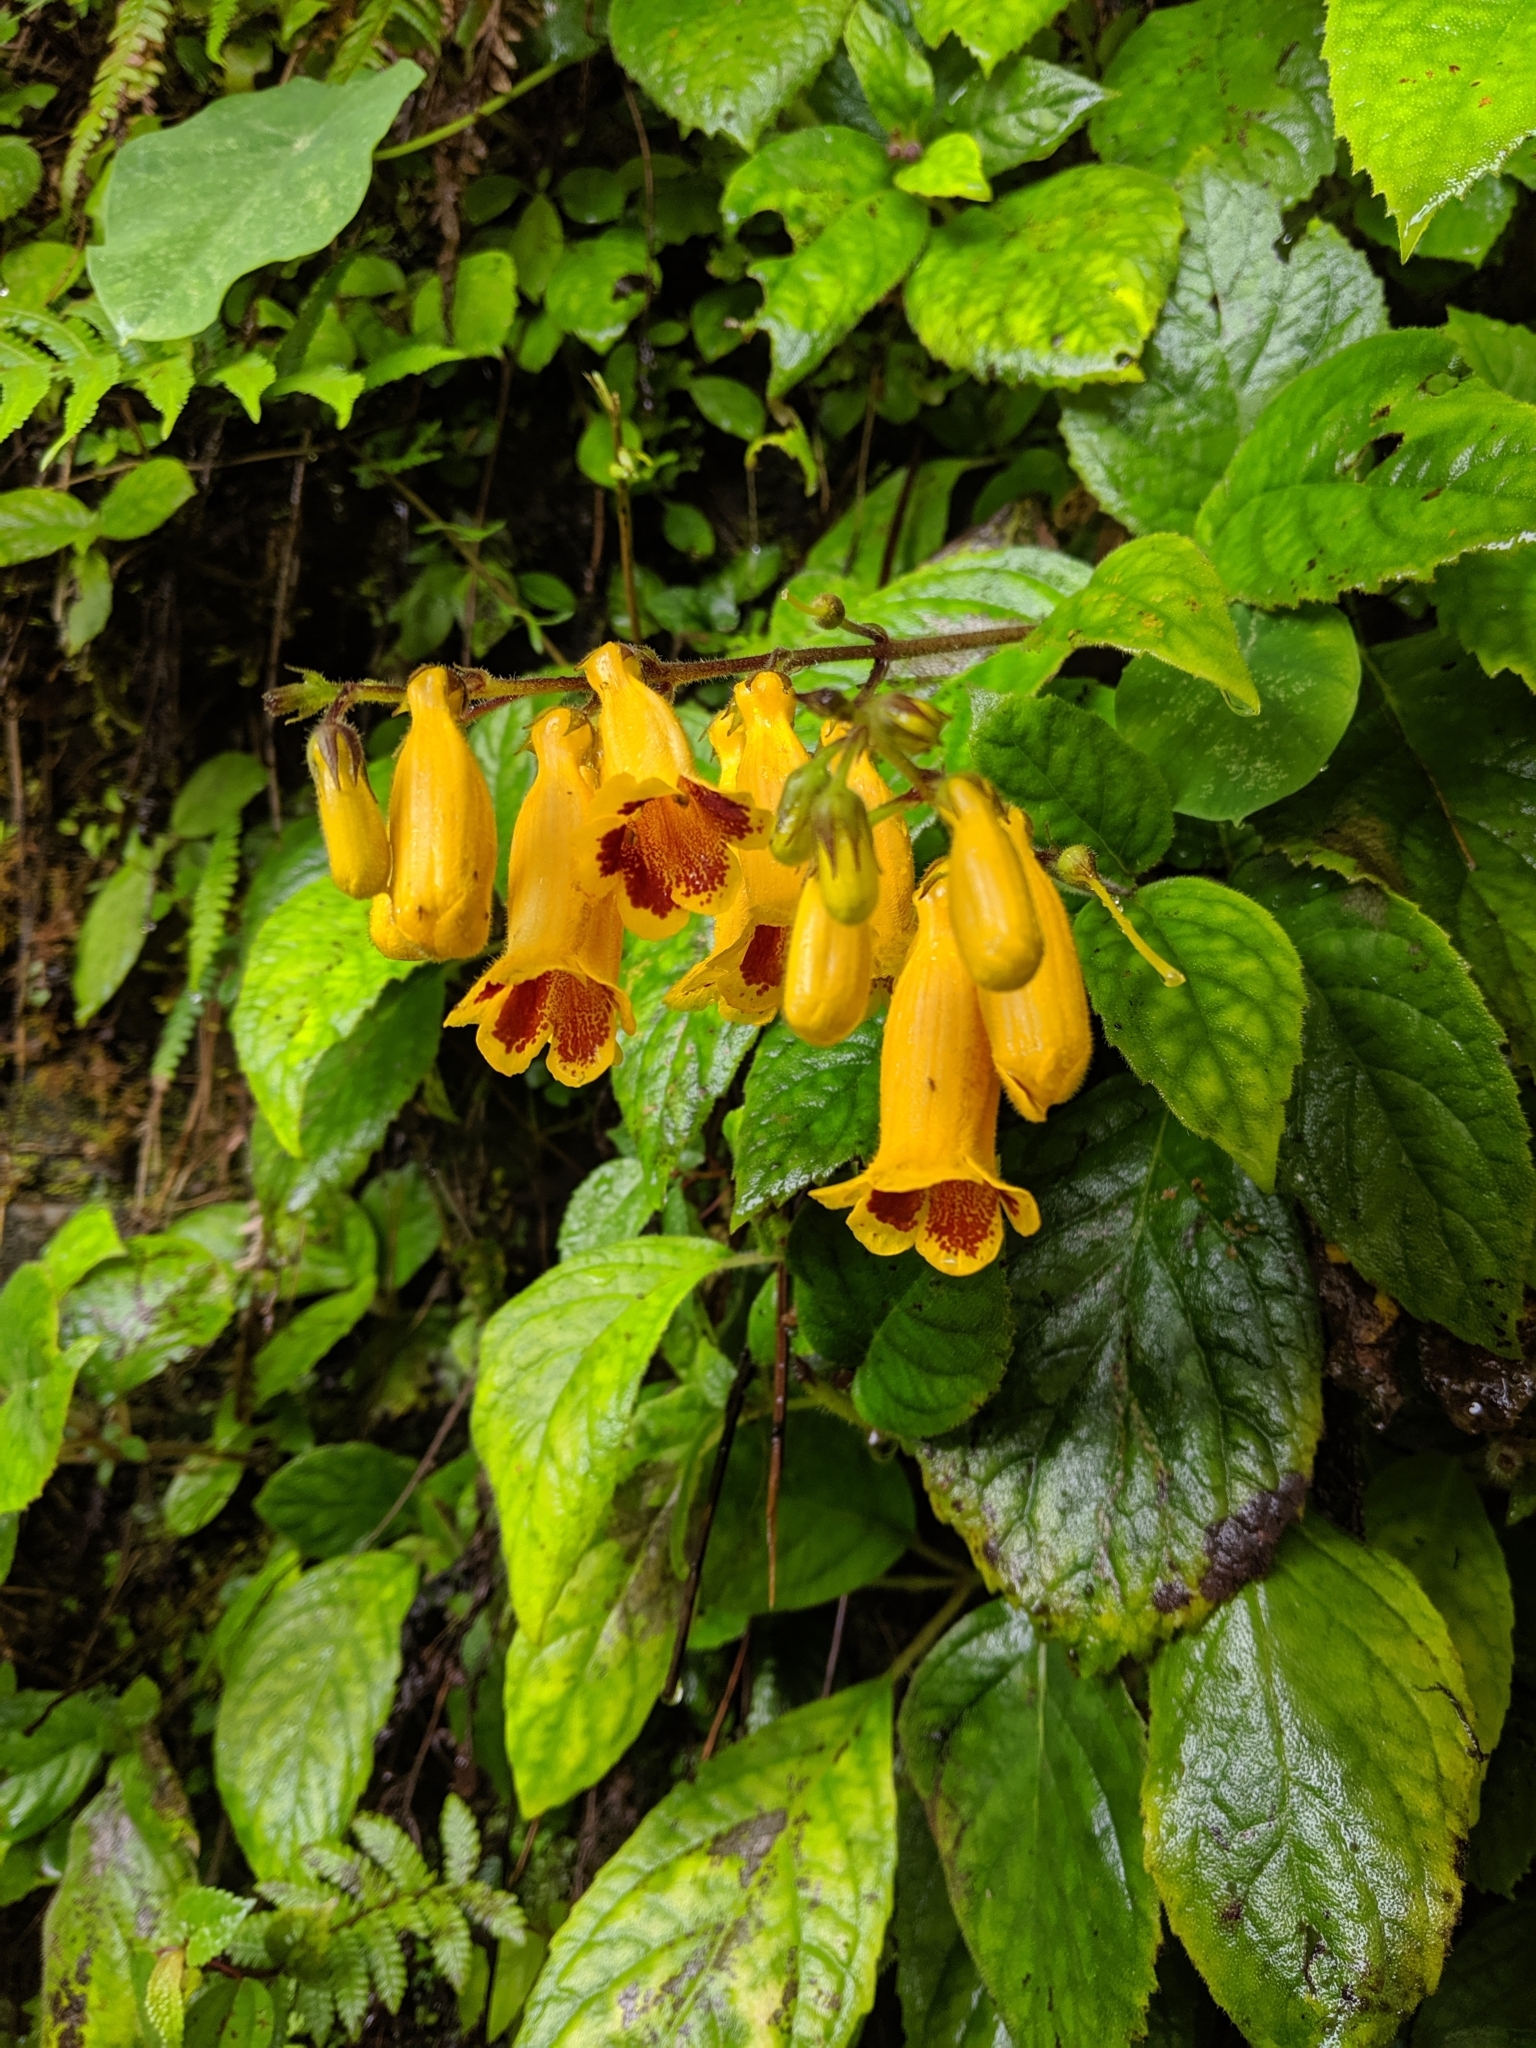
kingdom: Plantae
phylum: Tracheophyta
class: Magnoliopsida
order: Lamiales
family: Gesneriaceae
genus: Titanotrichum
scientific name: Titanotrichum oldhamii
